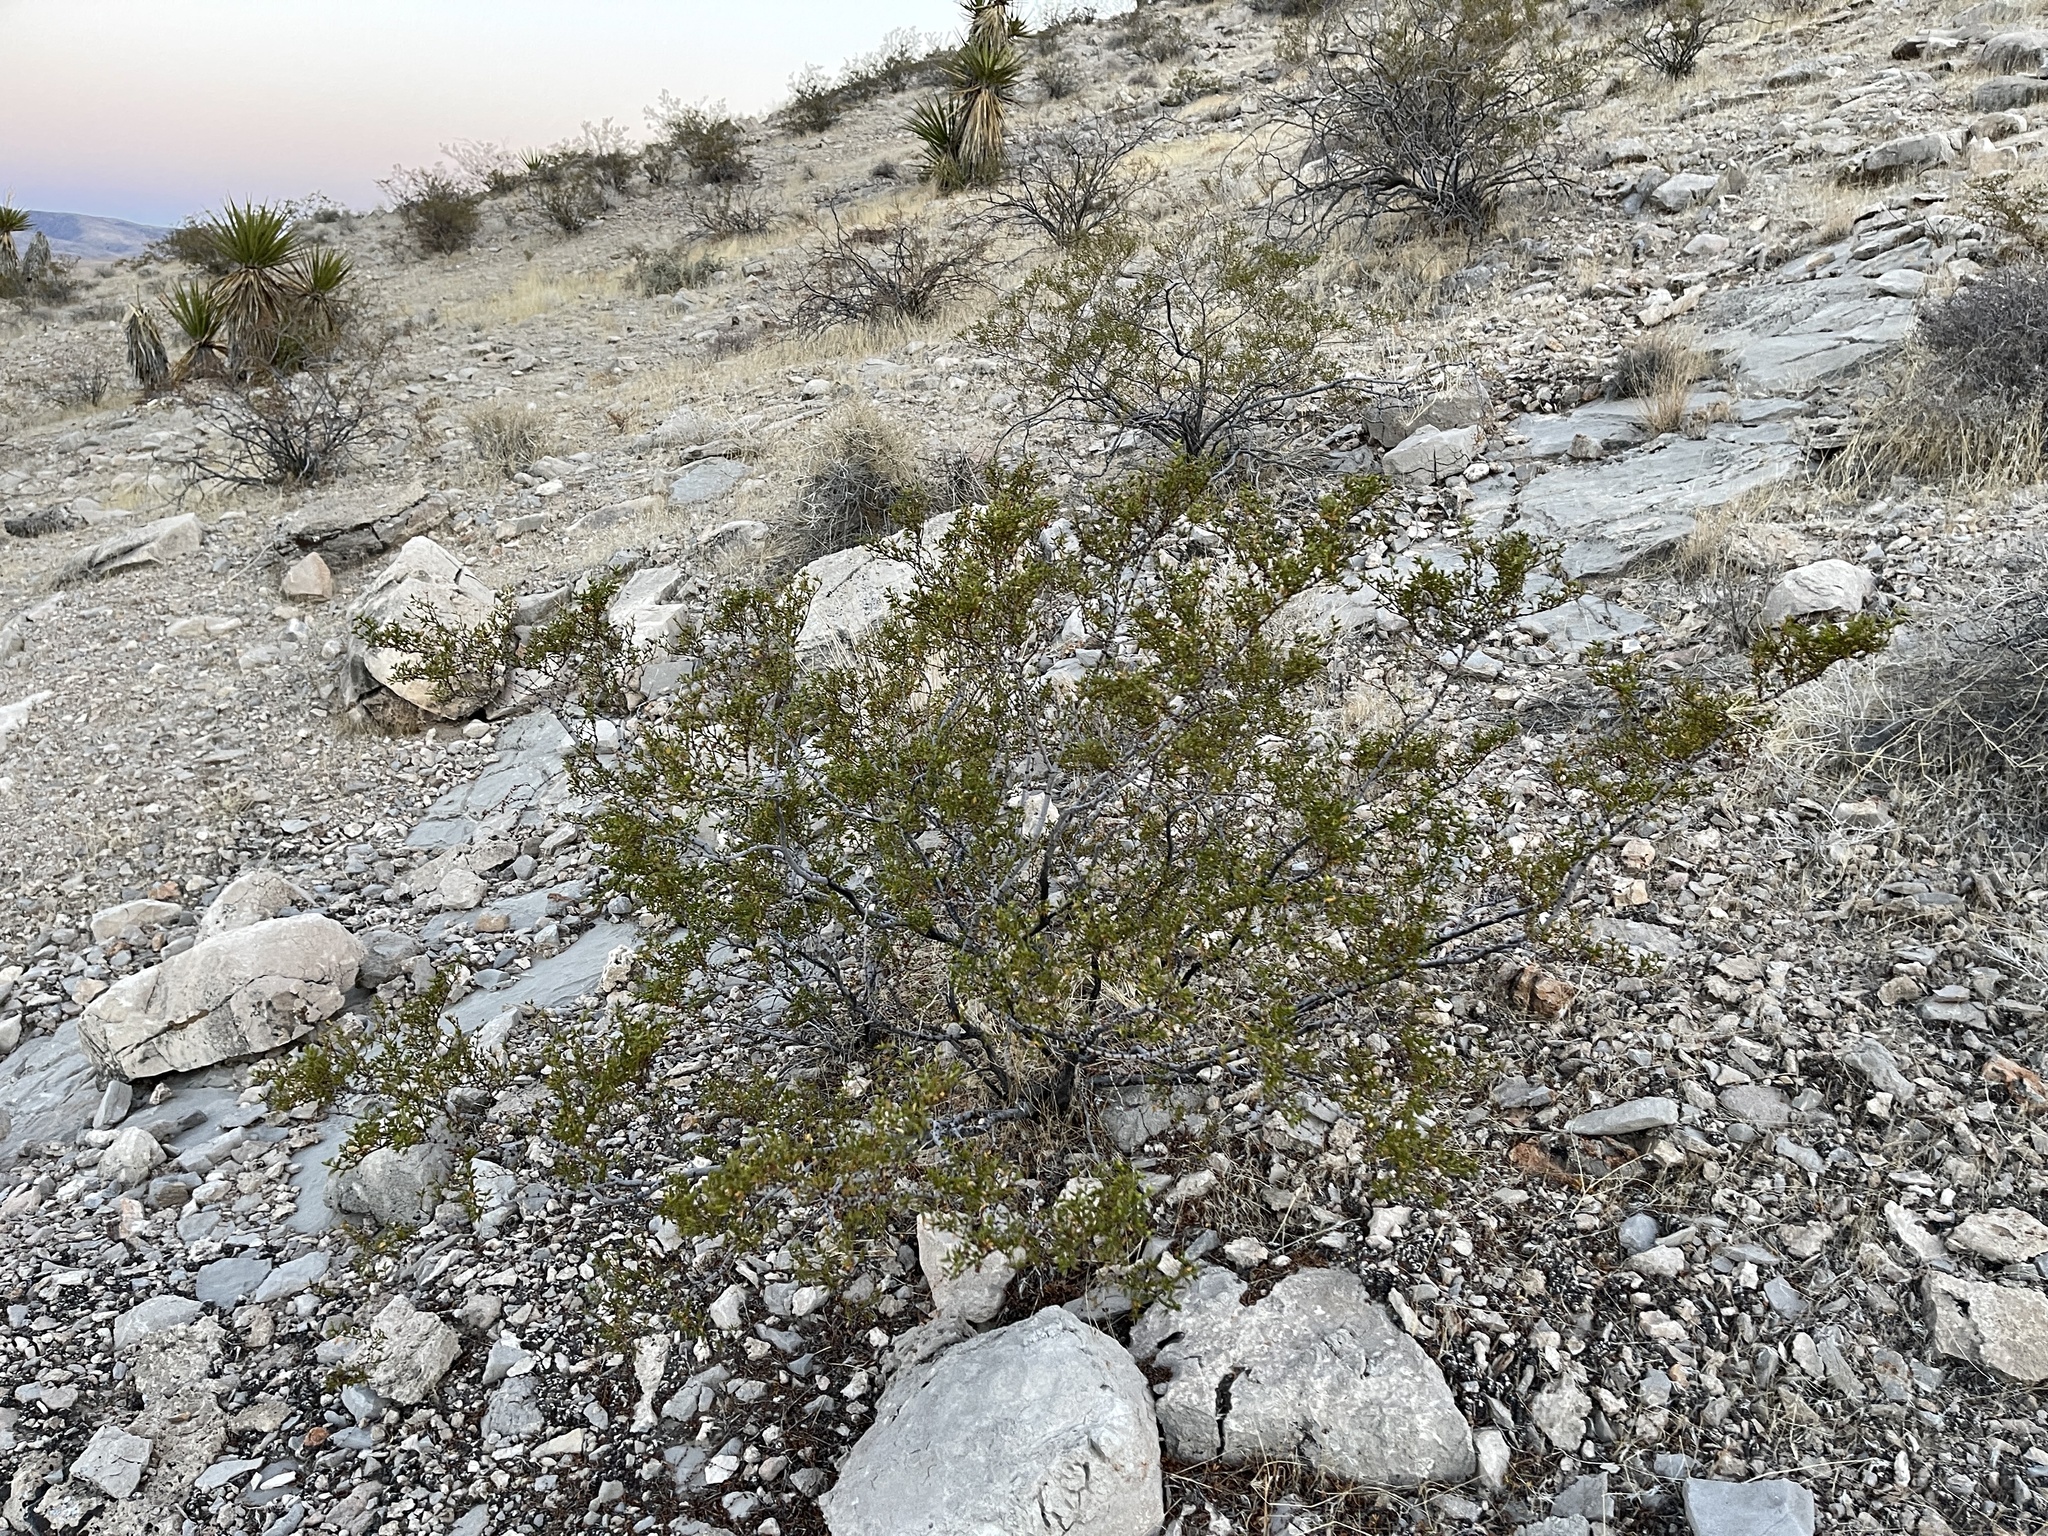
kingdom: Plantae
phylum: Tracheophyta
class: Magnoliopsida
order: Zygophyllales
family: Zygophyllaceae
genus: Larrea
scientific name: Larrea tridentata
